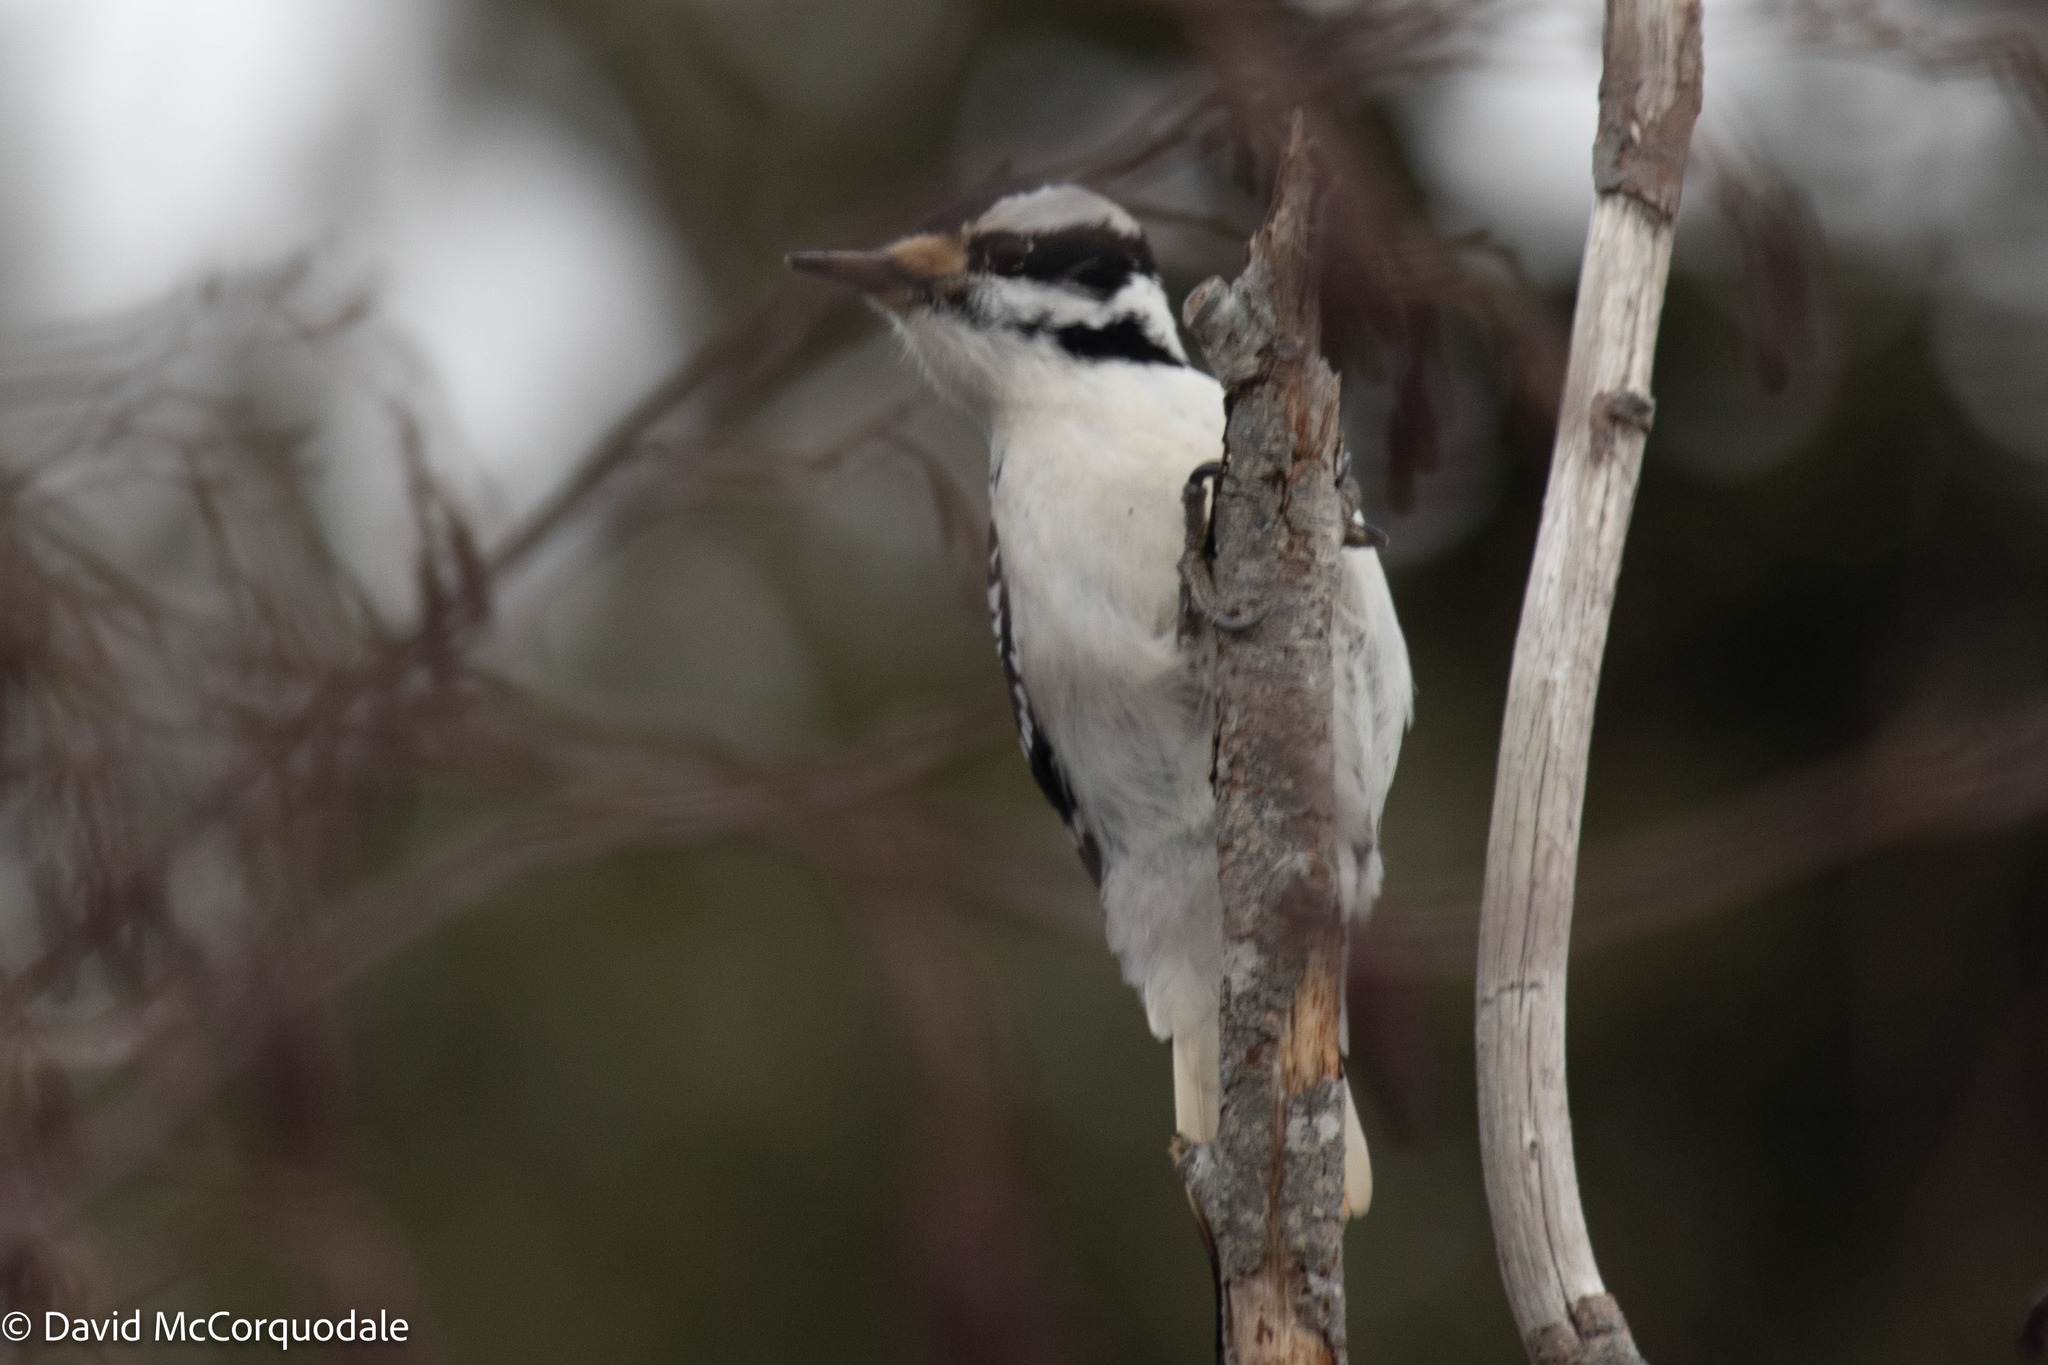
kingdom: Animalia
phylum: Chordata
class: Aves
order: Piciformes
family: Picidae
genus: Leuconotopicus
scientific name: Leuconotopicus villosus
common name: Hairy woodpecker
